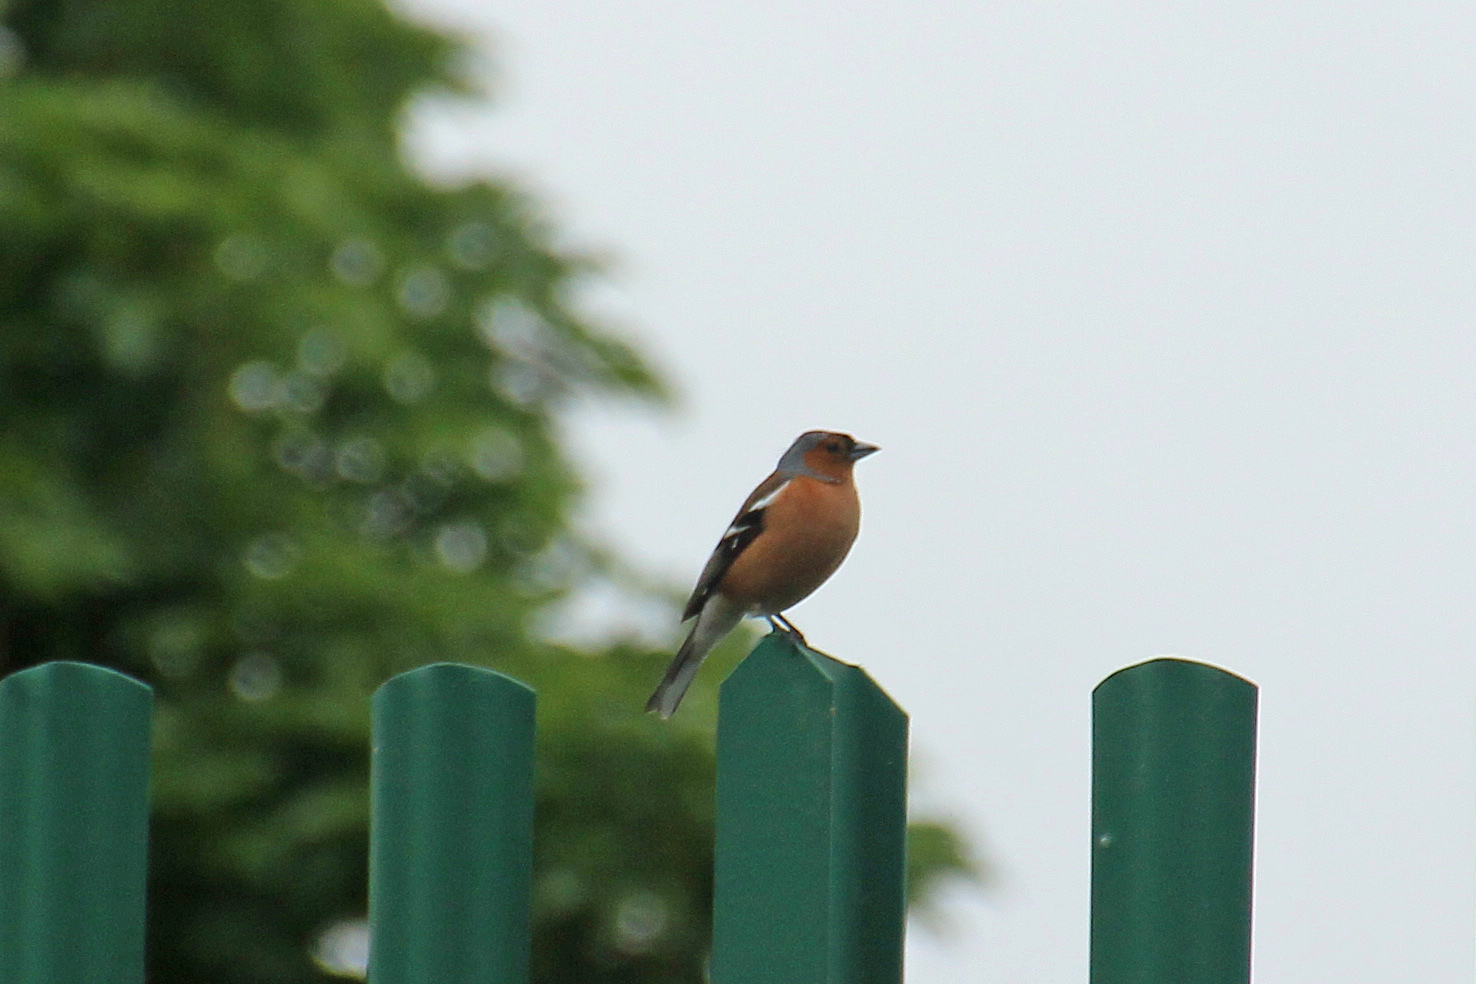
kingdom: Animalia
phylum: Chordata
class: Aves
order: Passeriformes
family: Fringillidae
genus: Fringilla
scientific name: Fringilla coelebs
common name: Common chaffinch
